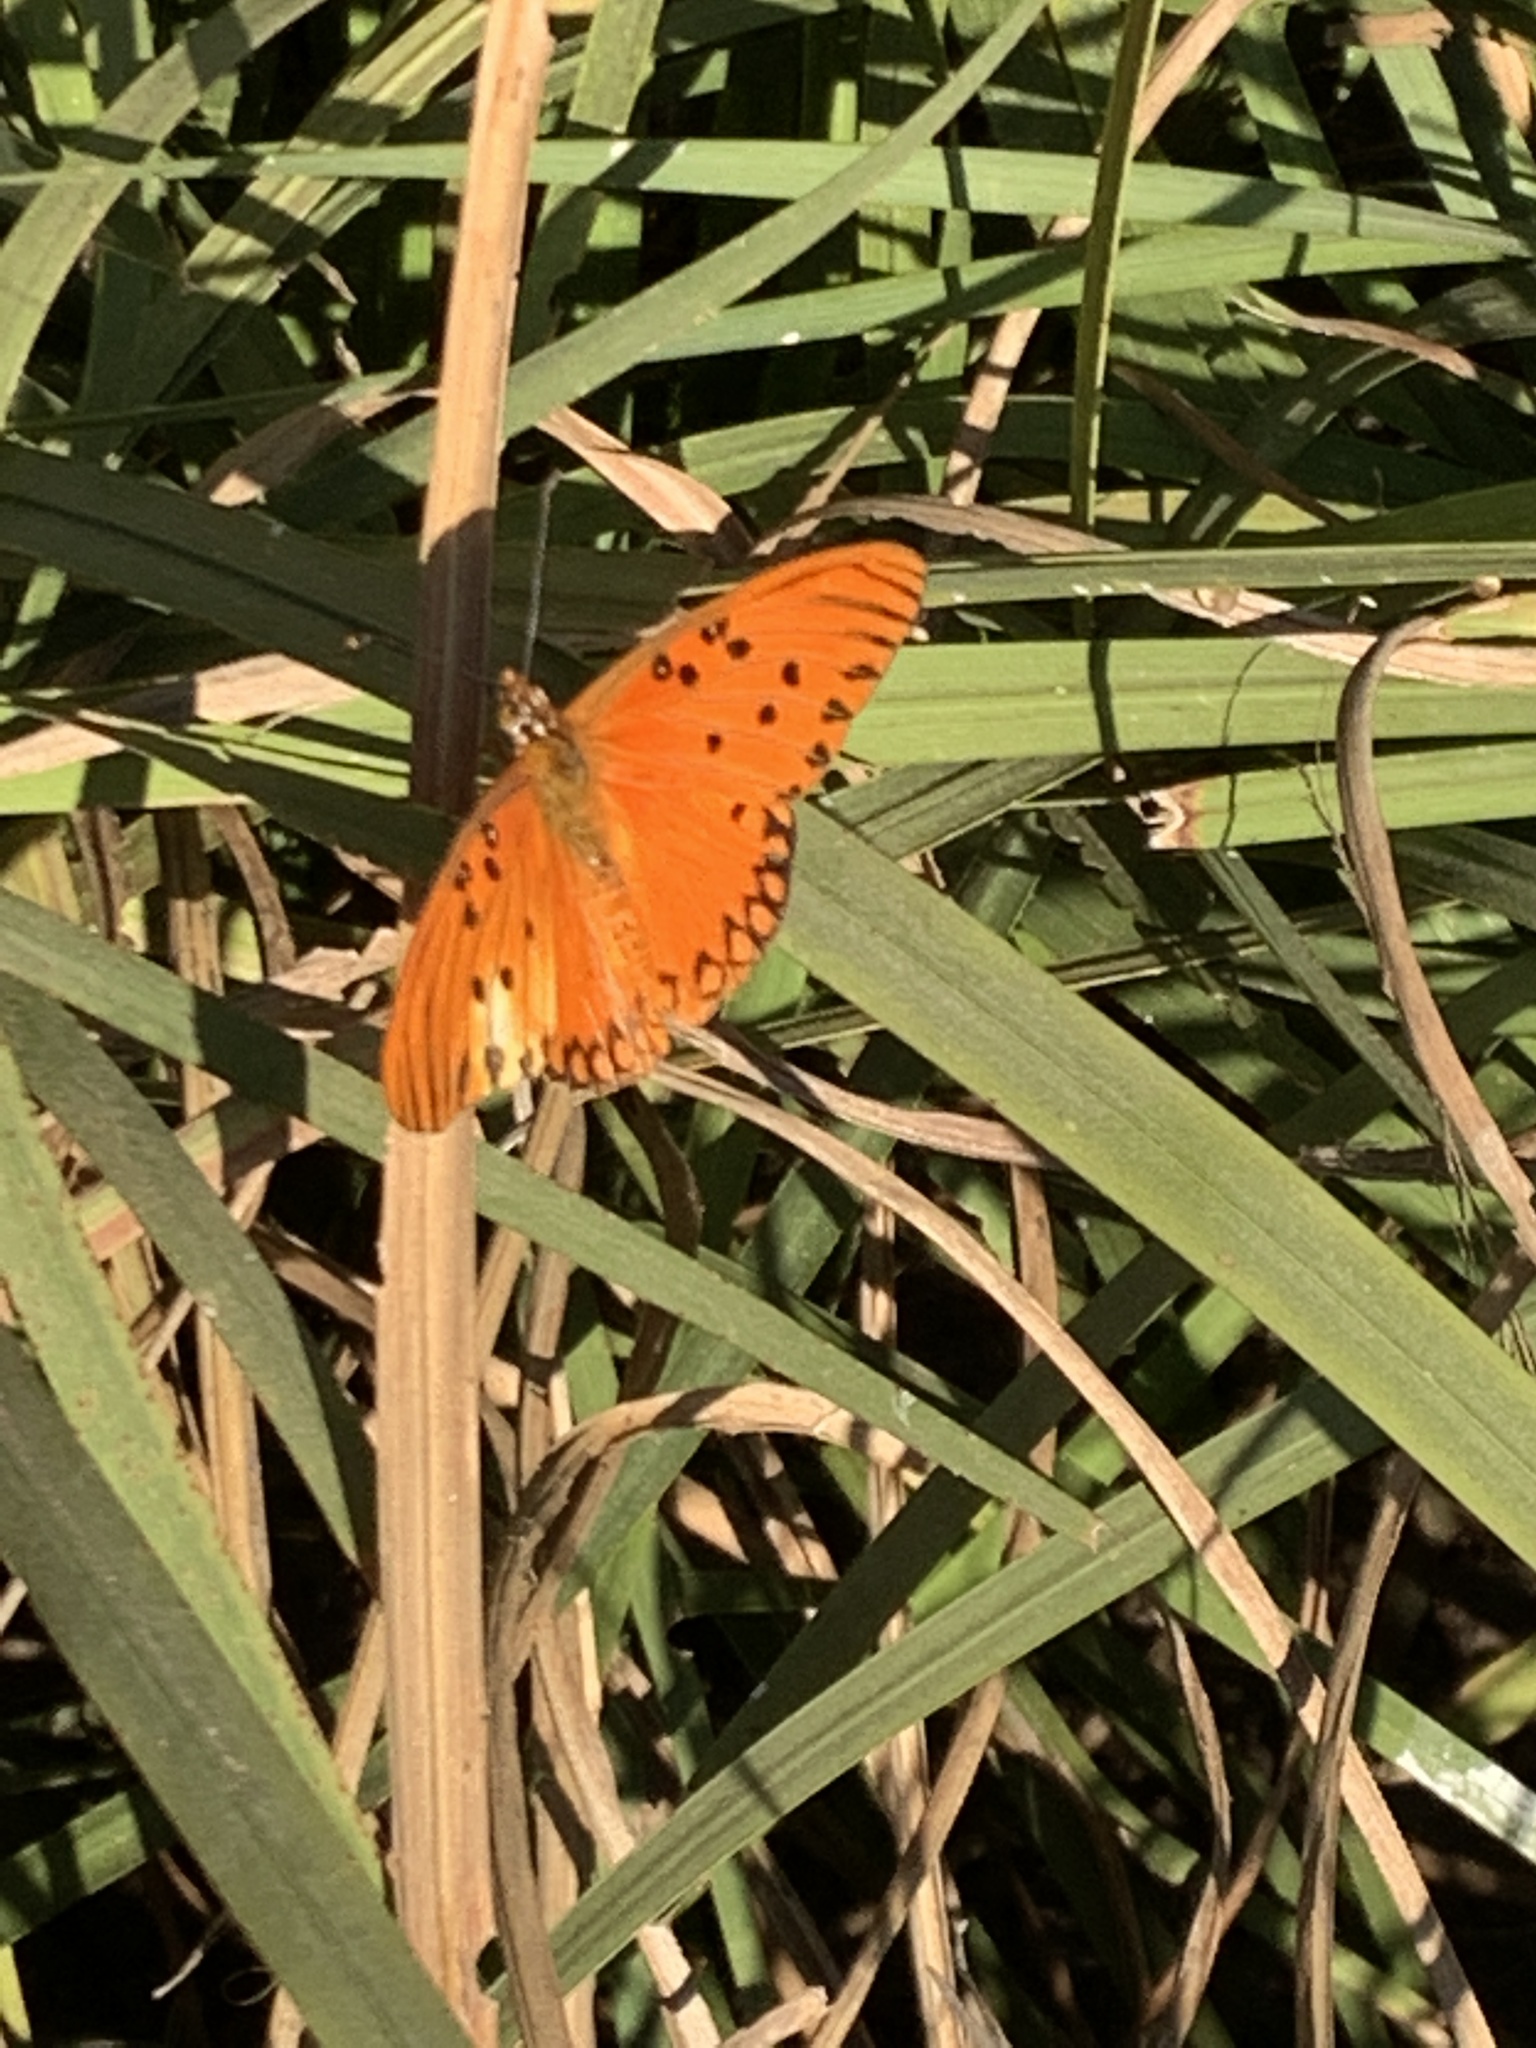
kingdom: Animalia
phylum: Arthropoda
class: Insecta
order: Lepidoptera
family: Nymphalidae
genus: Dione
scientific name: Dione vanillae
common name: Gulf fritillary
